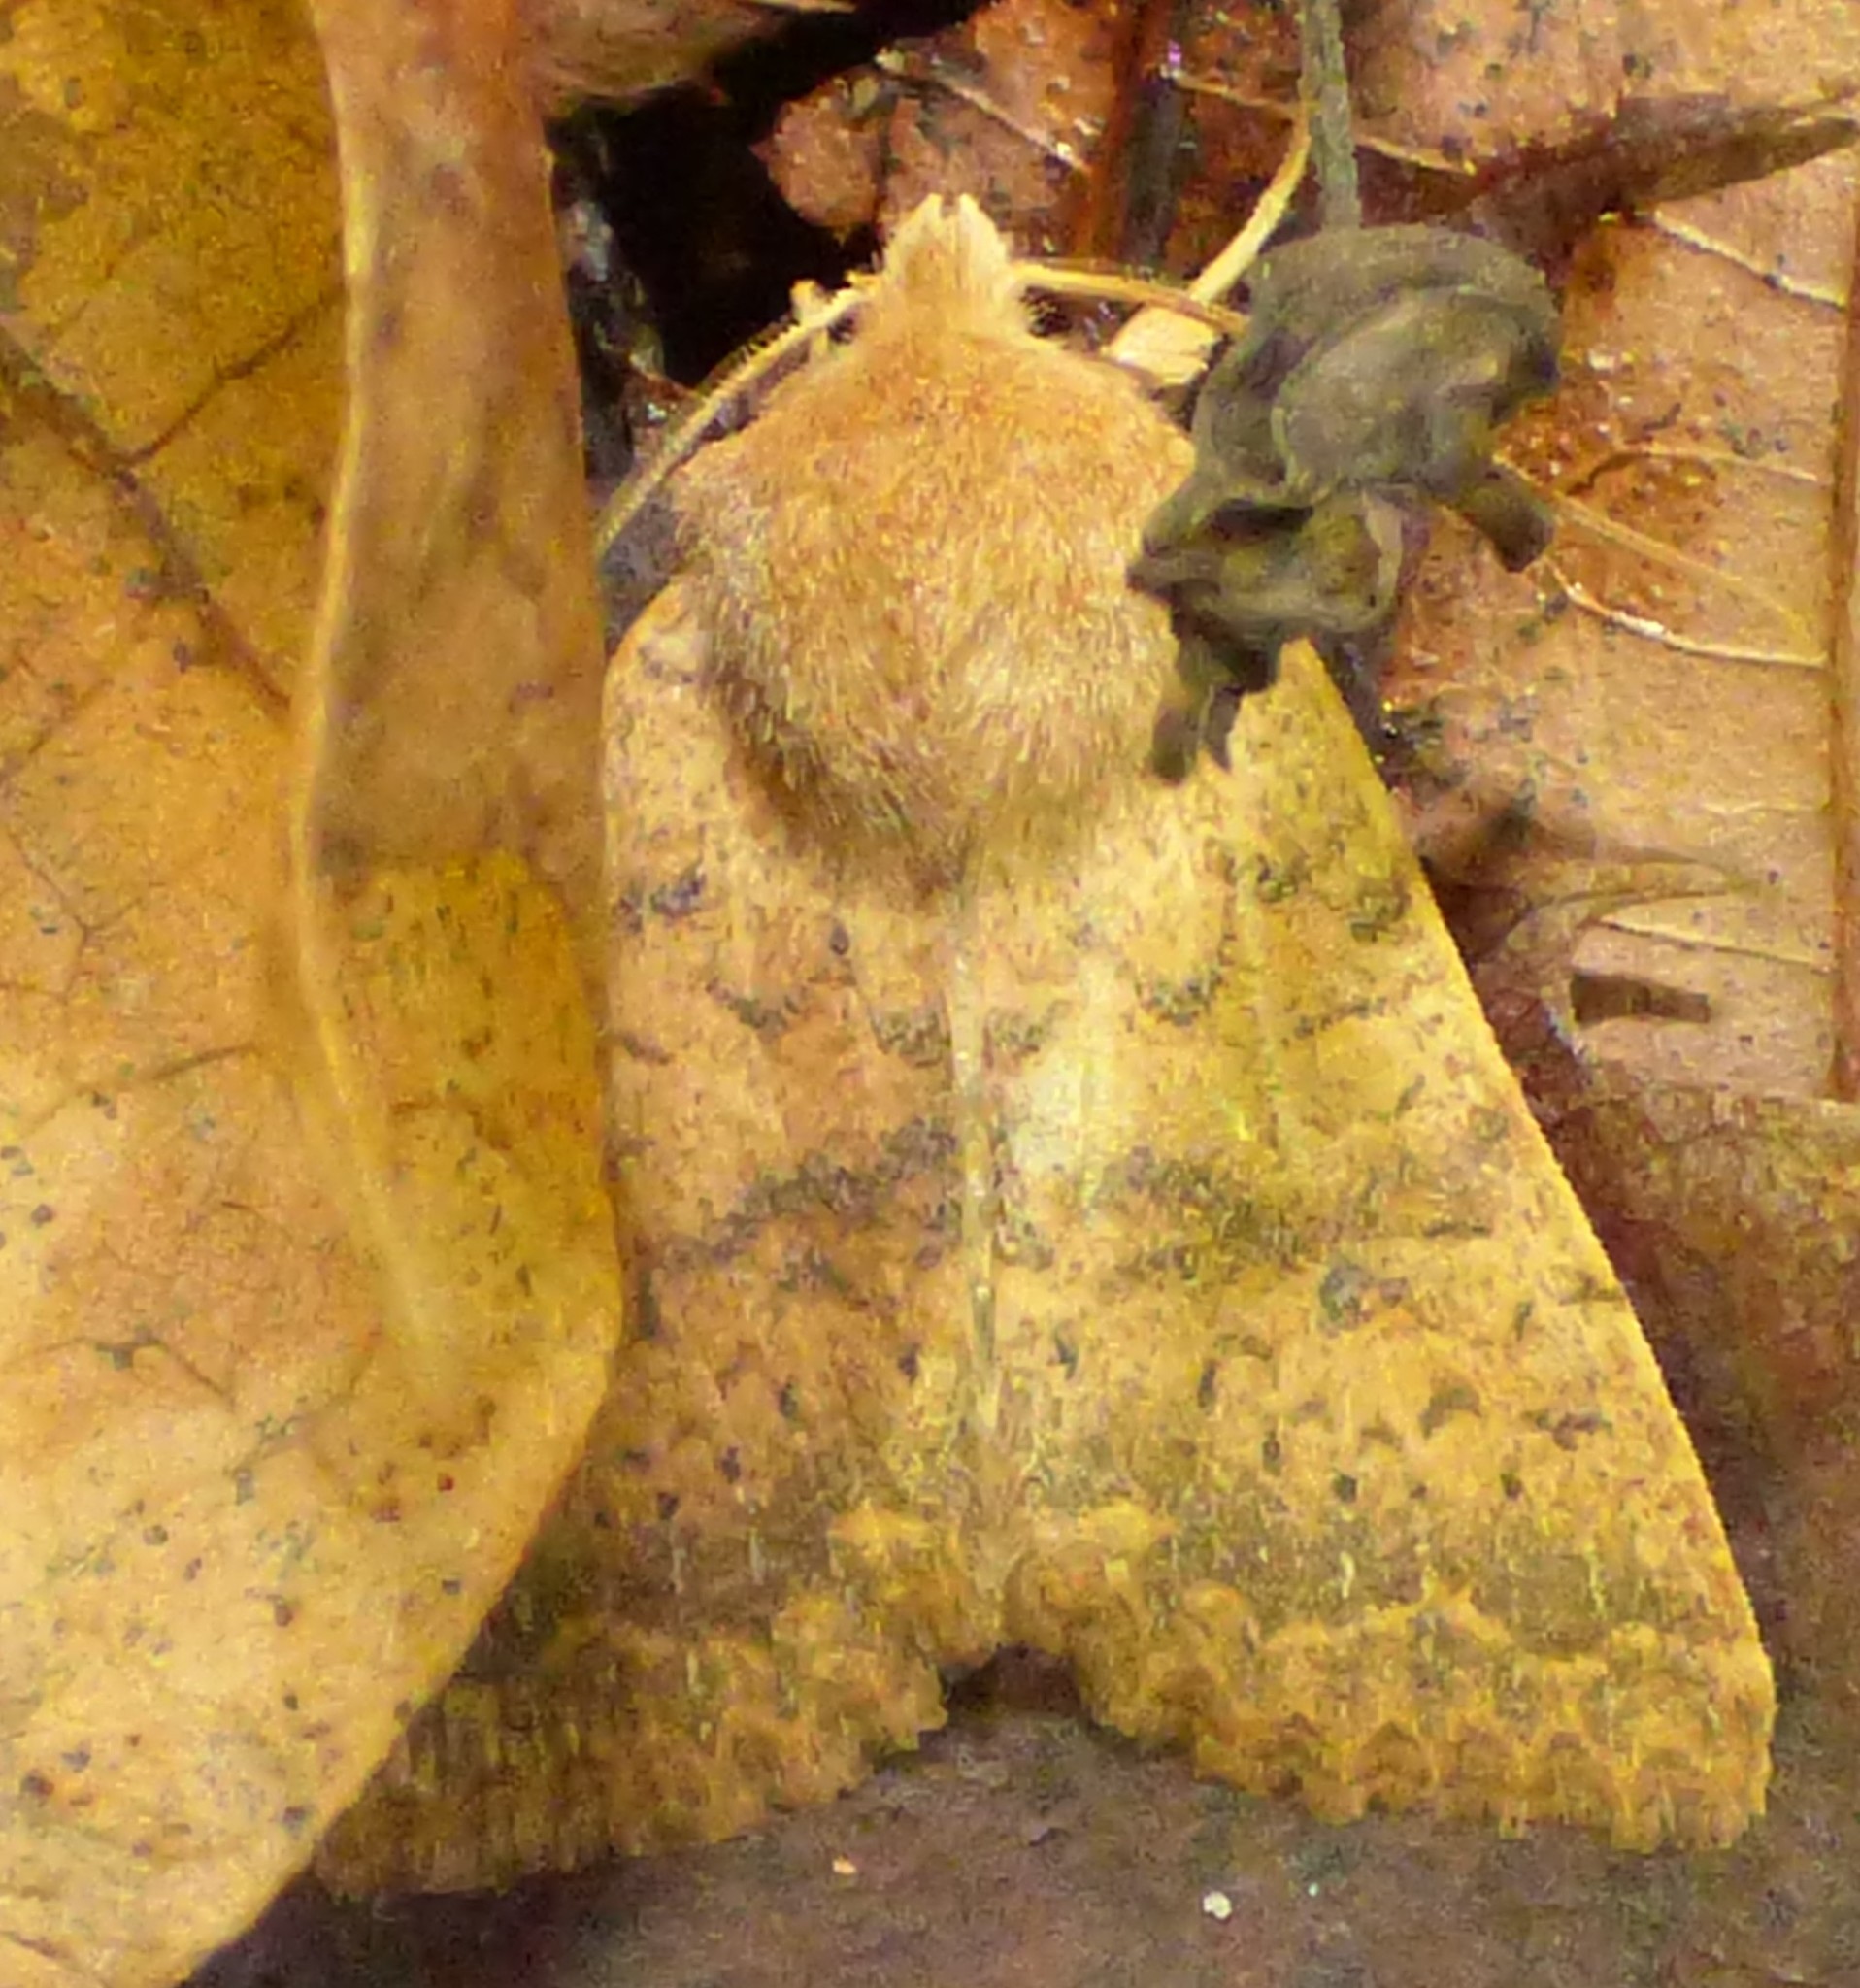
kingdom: Animalia
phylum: Arthropoda
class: Insecta
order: Lepidoptera
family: Noctuidae
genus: Agrochola
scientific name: Agrochola bicolorago
